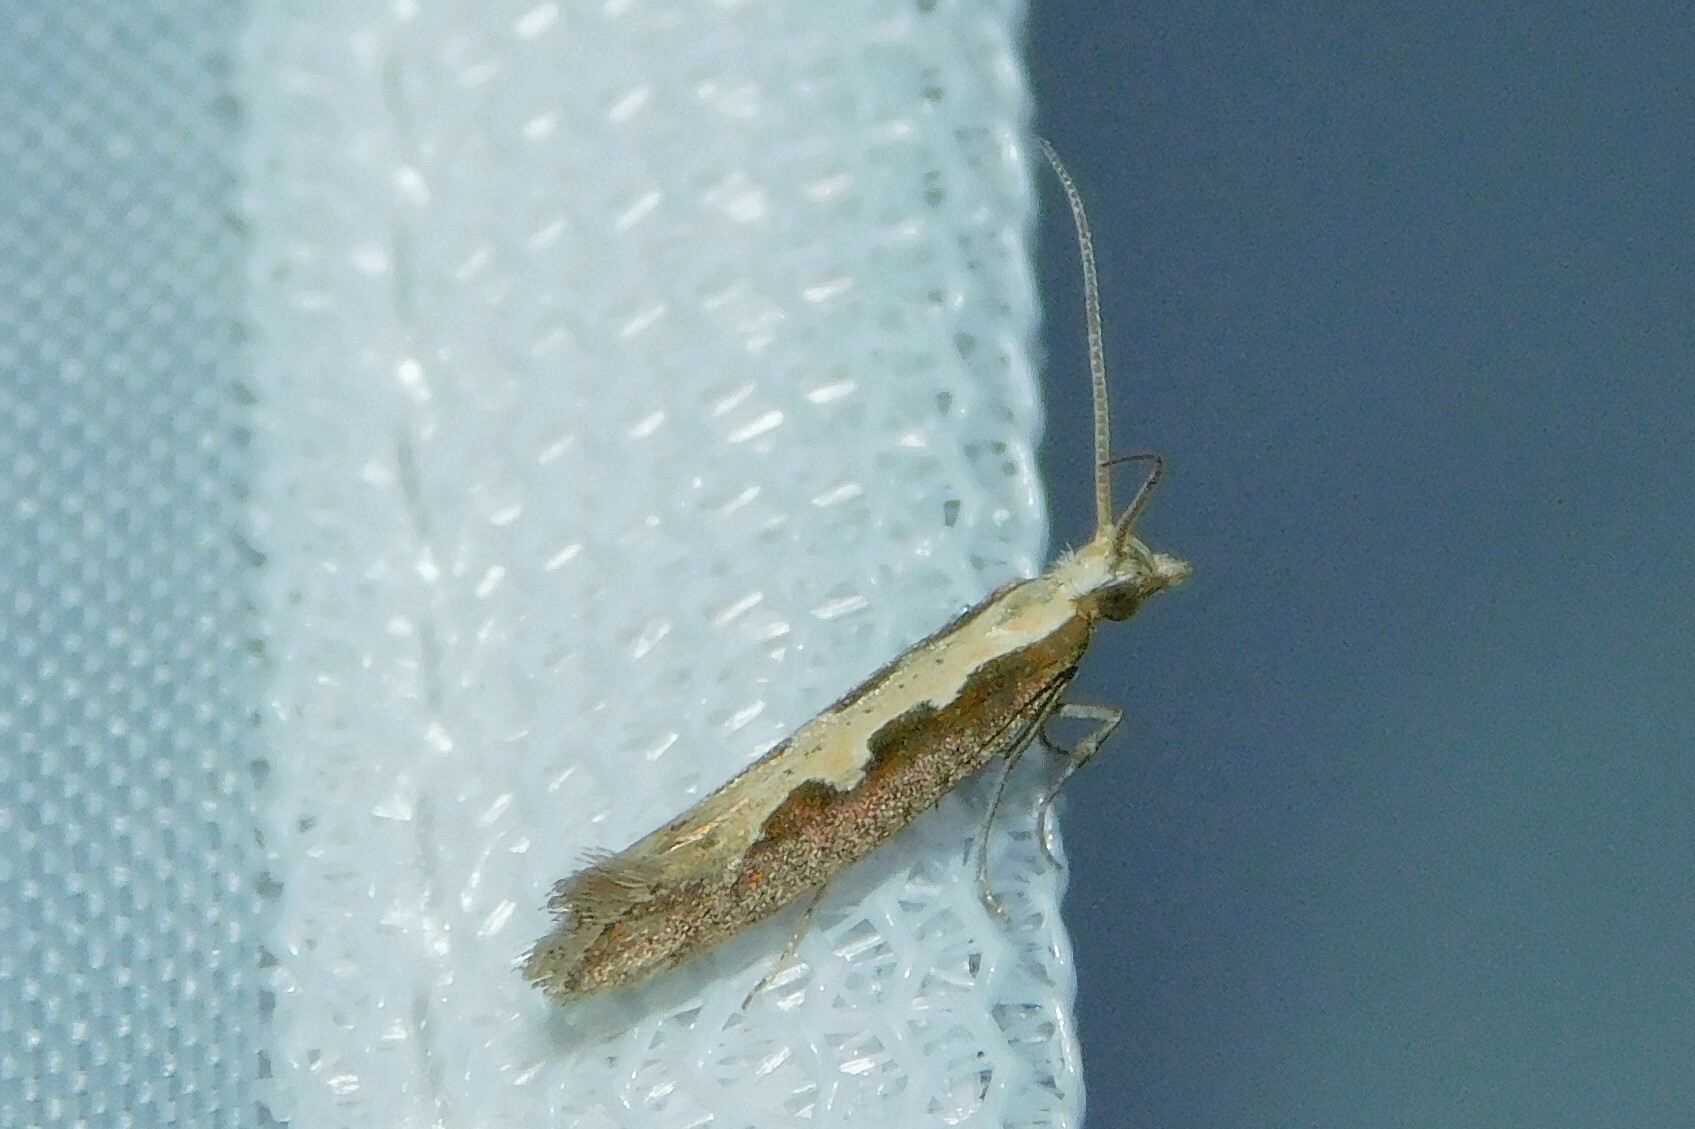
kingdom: Animalia
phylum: Arthropoda
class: Insecta
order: Lepidoptera
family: Plutellidae
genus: Plutella
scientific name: Plutella xylostella
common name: Diamond-back moth
